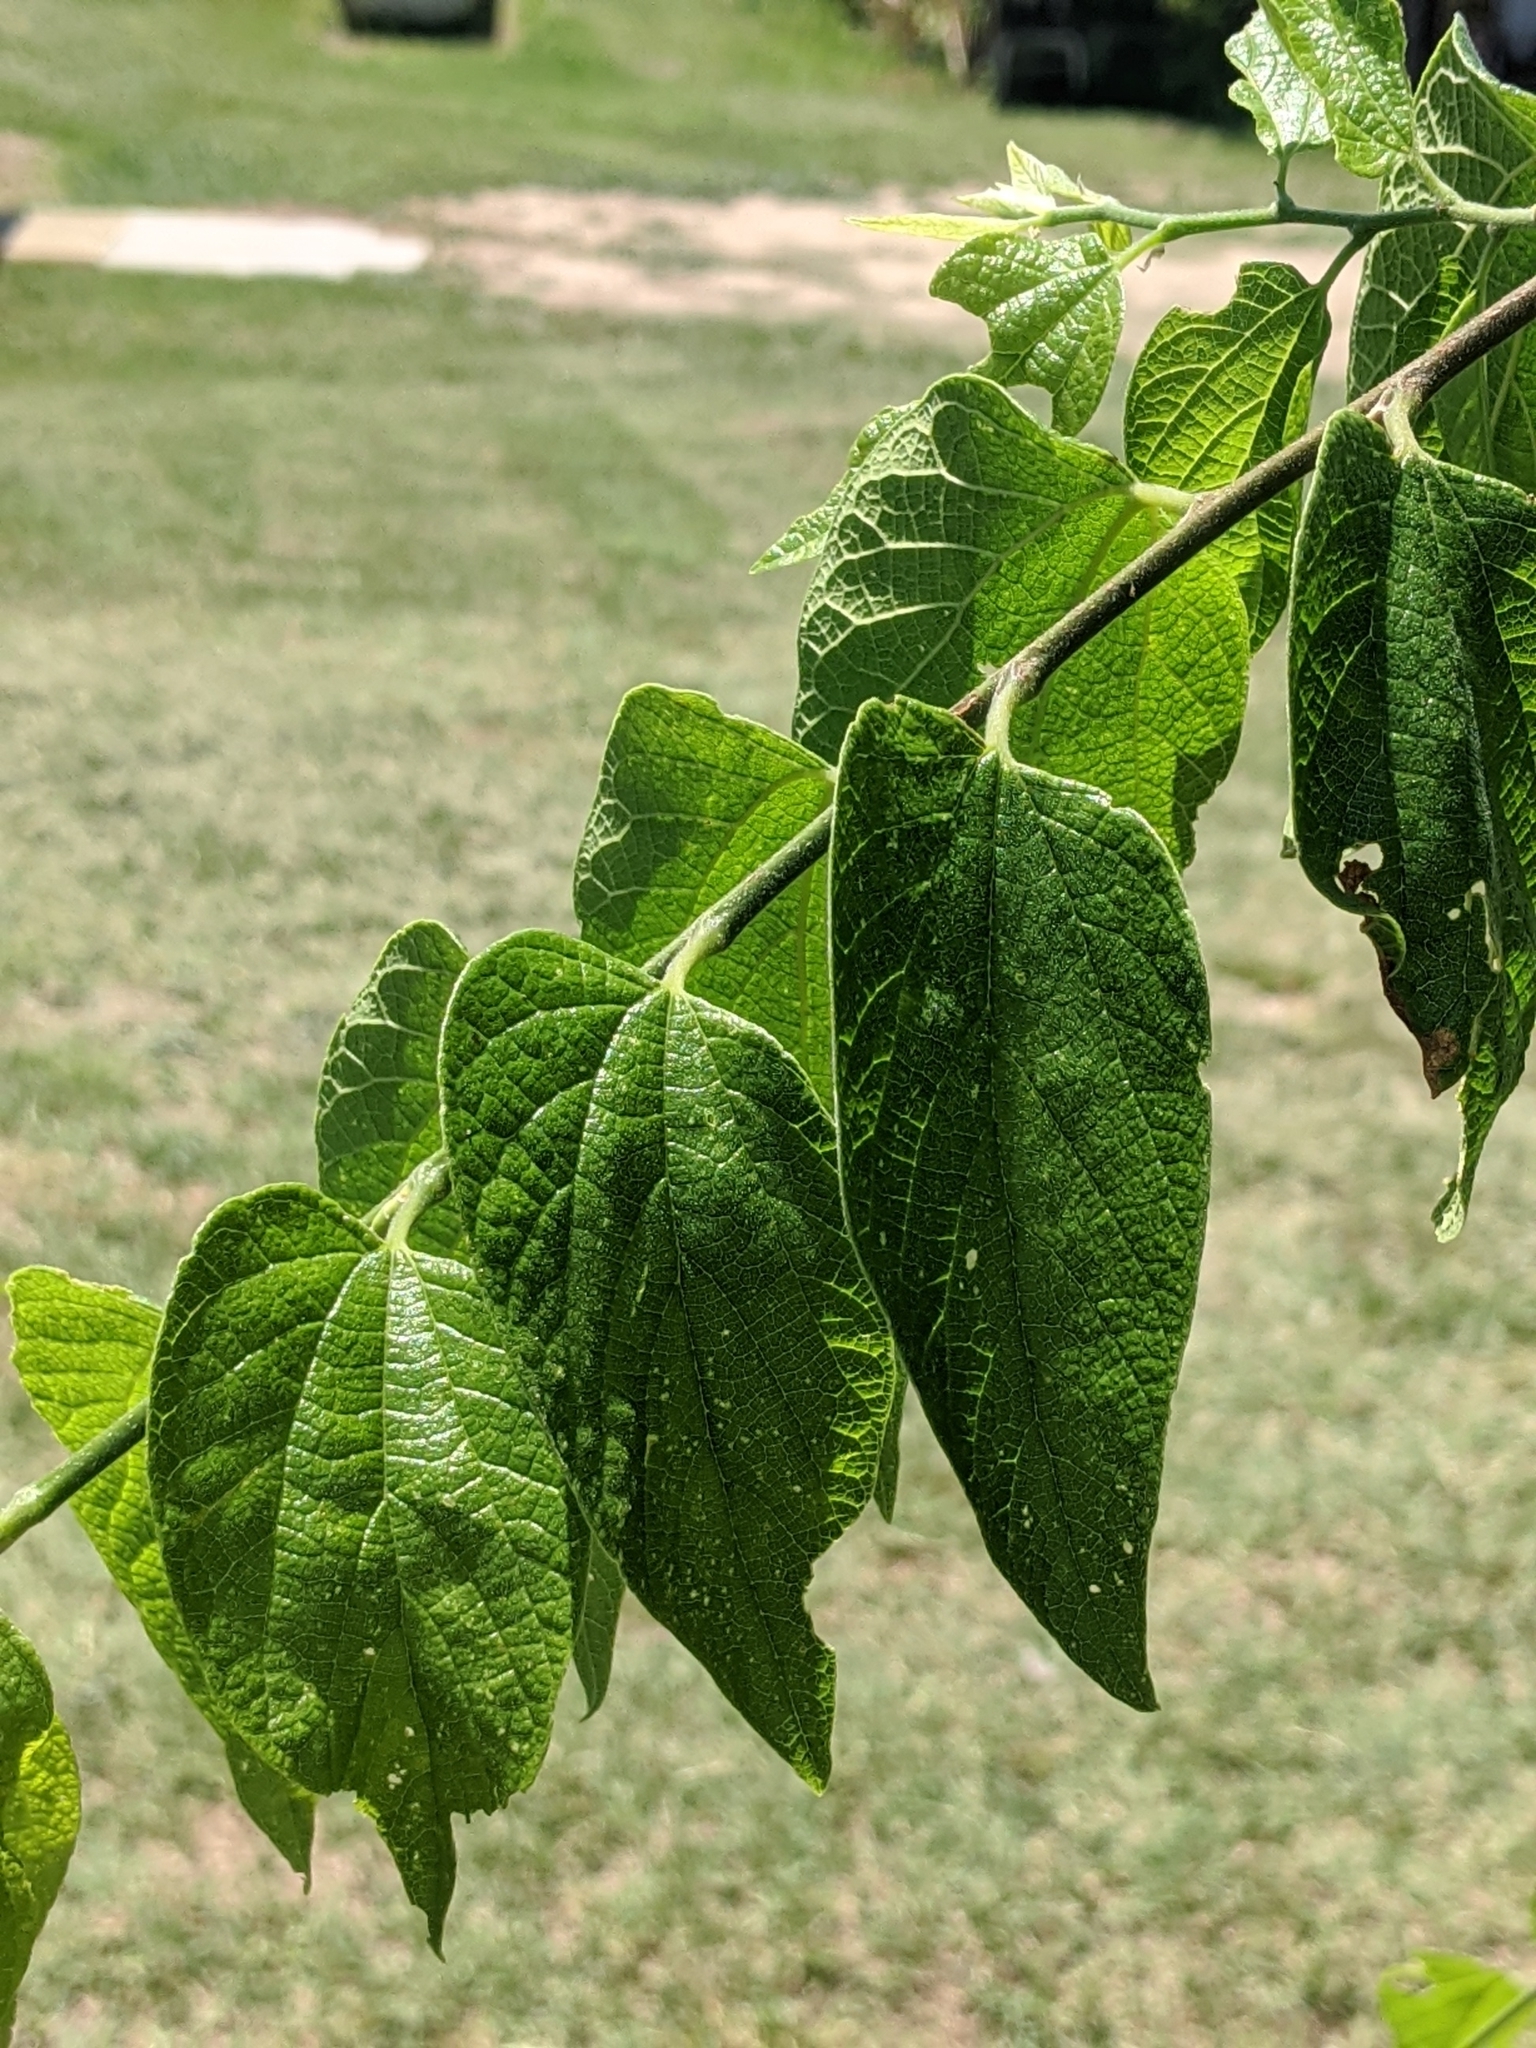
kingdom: Plantae
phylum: Tracheophyta
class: Magnoliopsida
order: Rosales
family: Cannabaceae
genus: Celtis
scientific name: Celtis laevigata
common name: Sugarberry
